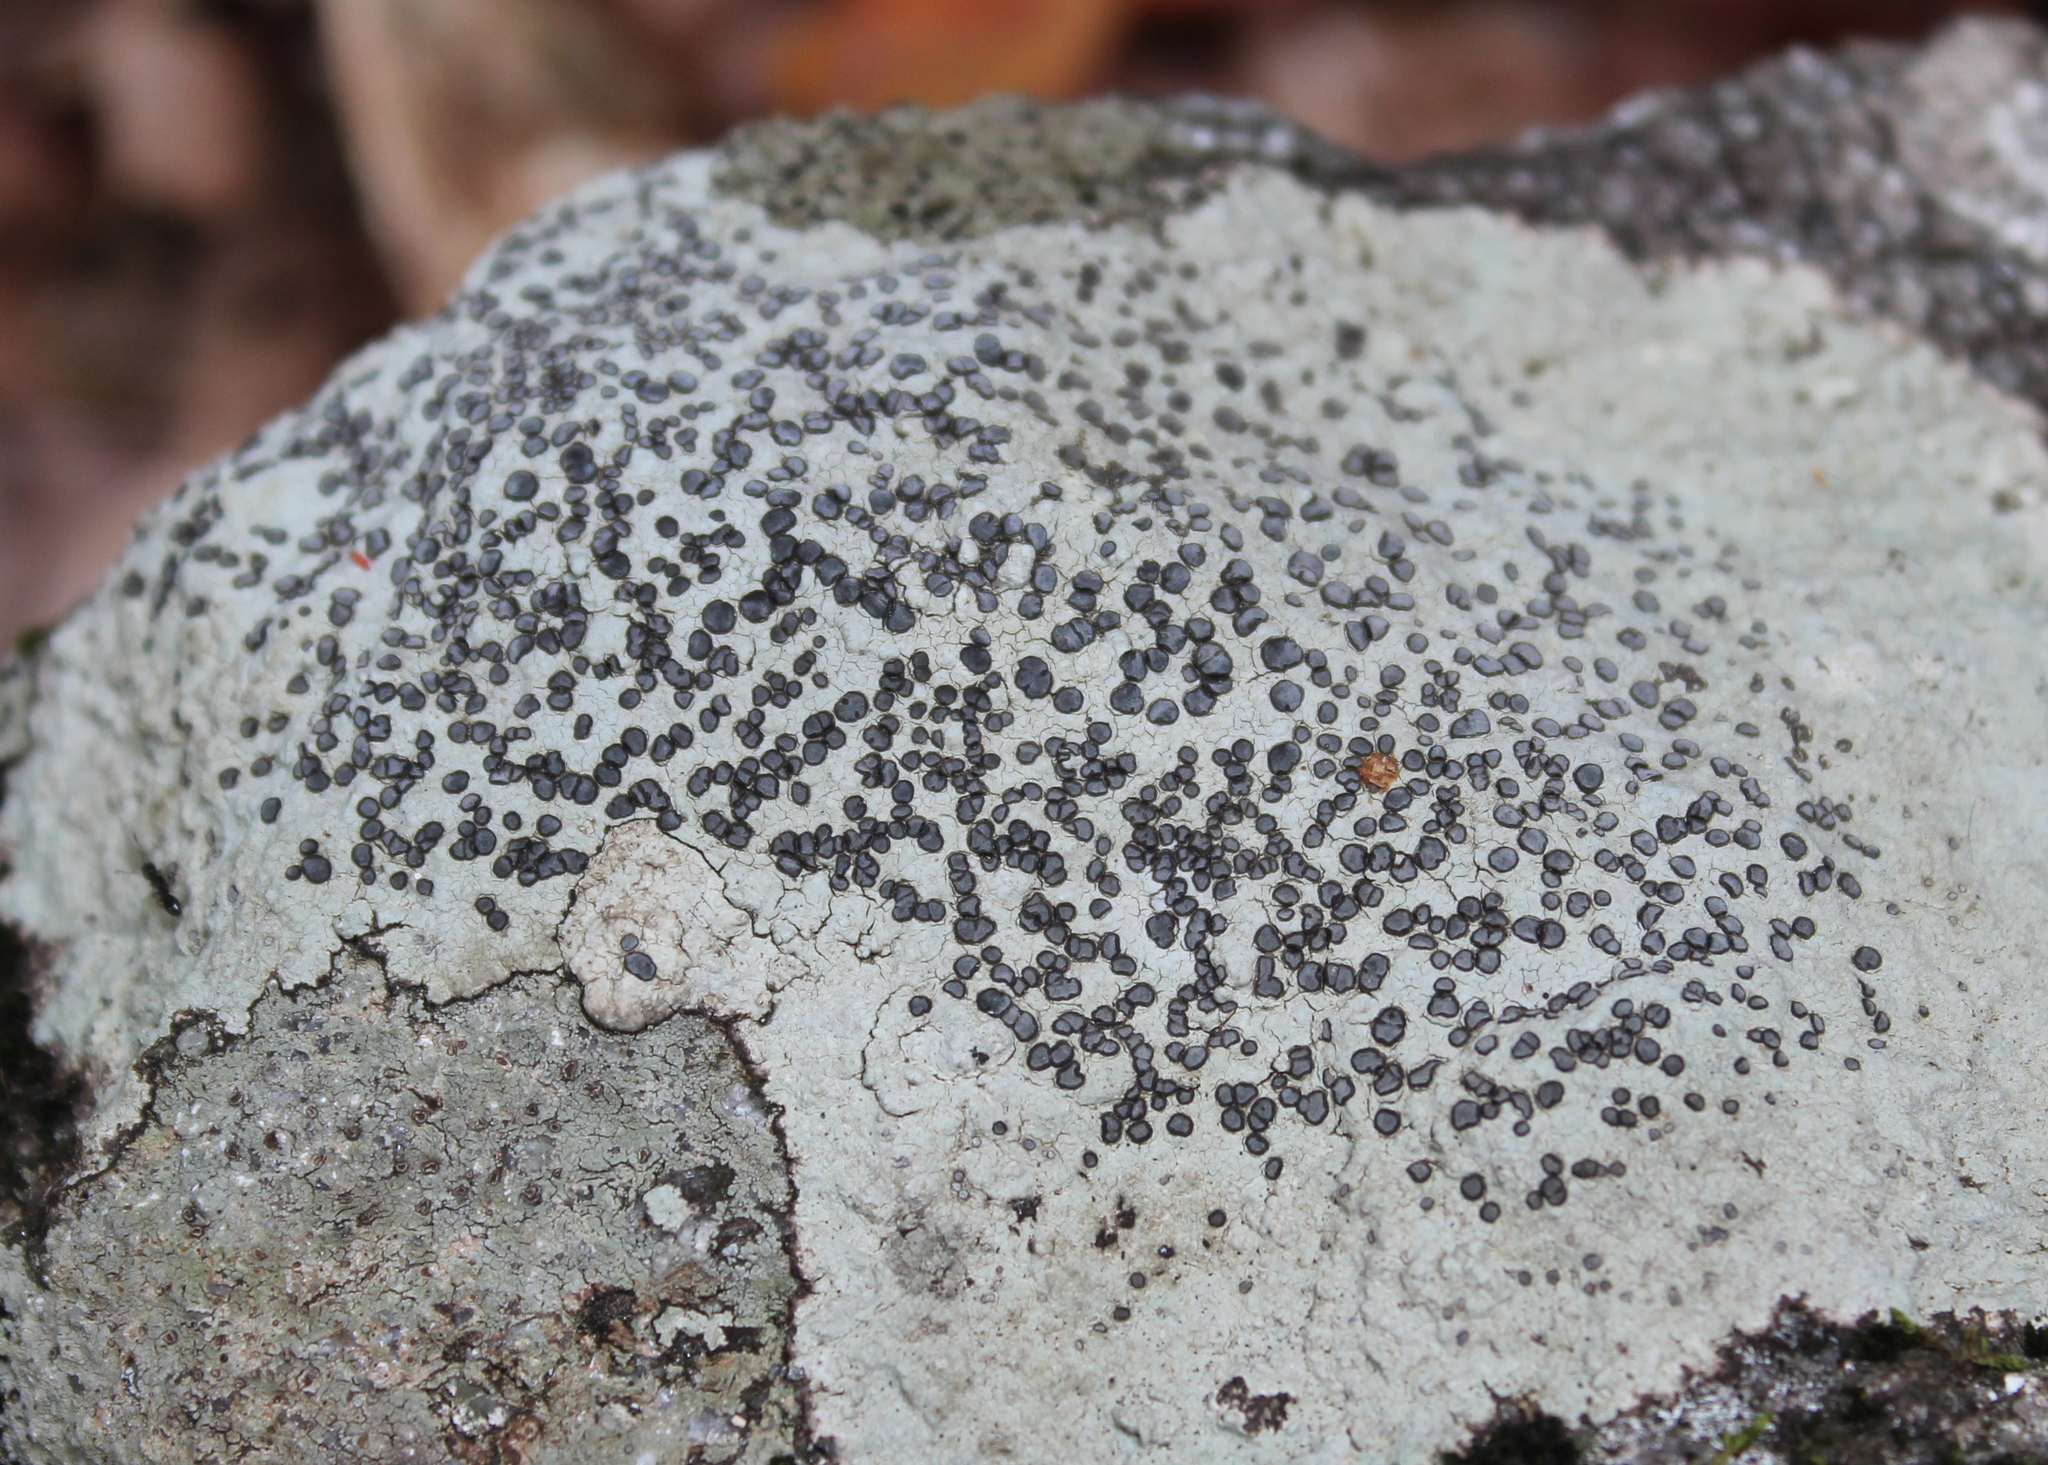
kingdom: Fungi
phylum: Ascomycota
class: Lecanoromycetes
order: Lecideales
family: Lecideaceae
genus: Porpidia
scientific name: Porpidia albocaerulescens
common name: Smokey-eyed boulder lichen
